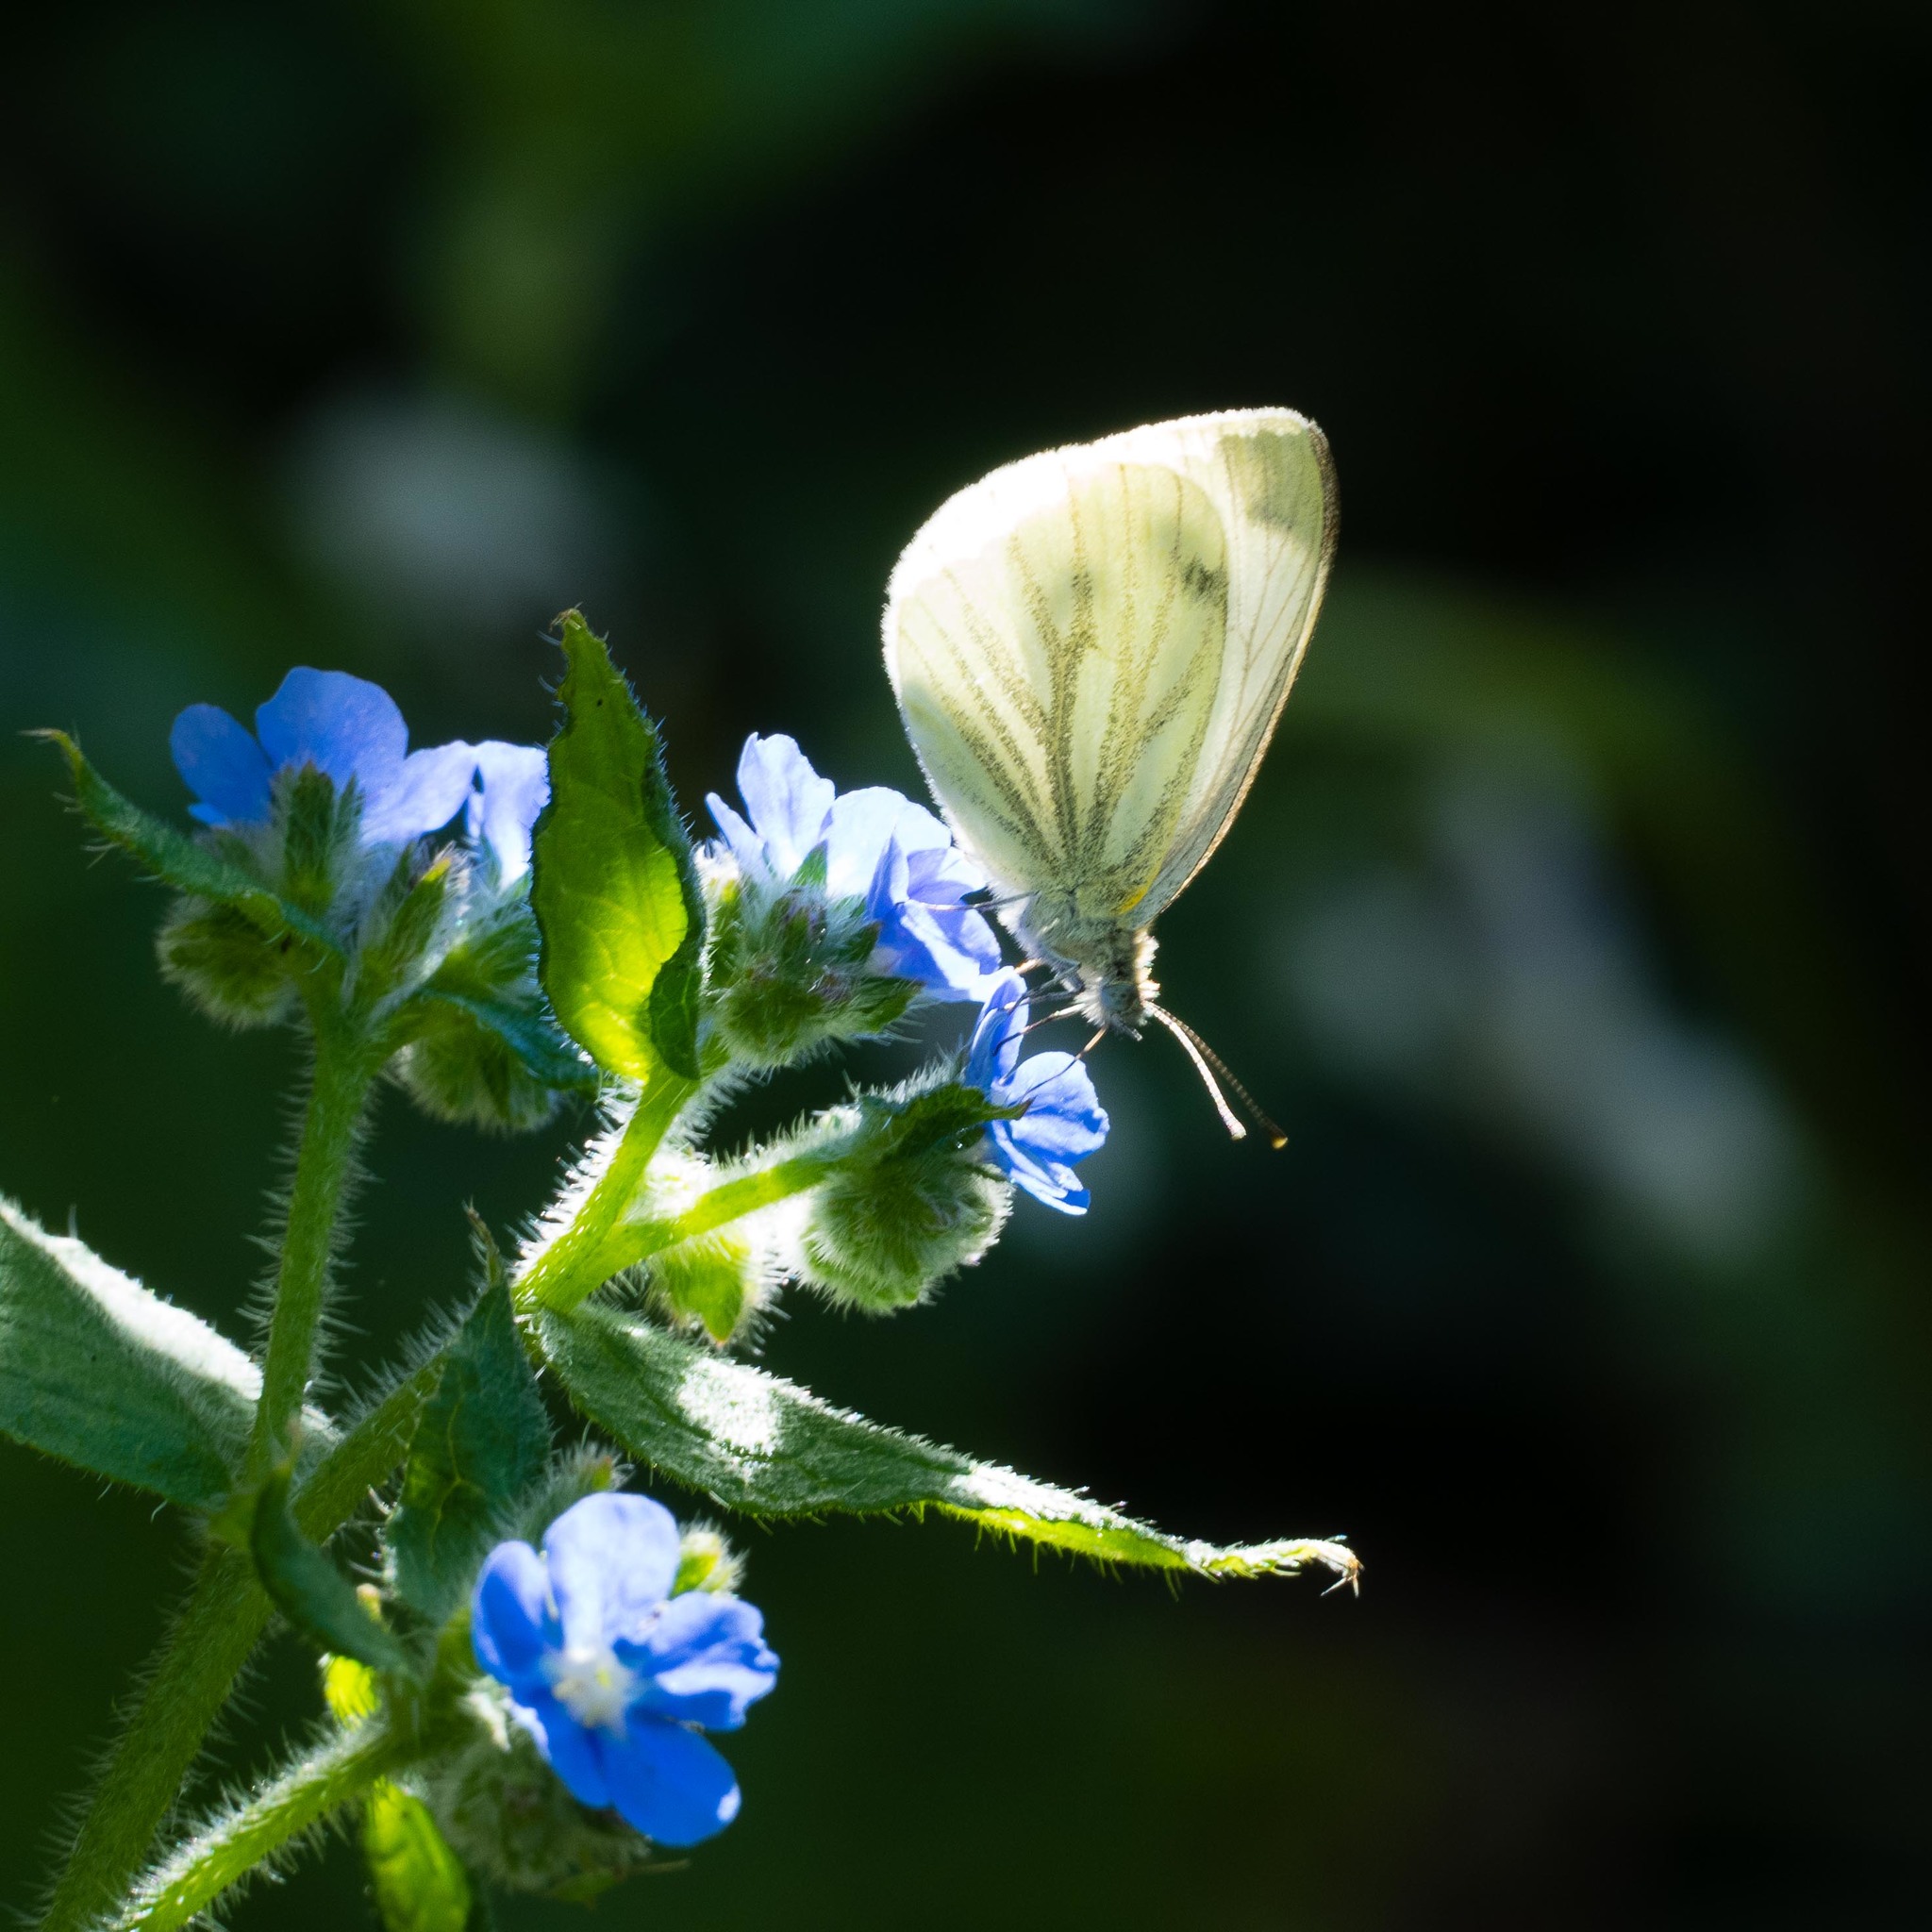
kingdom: Animalia
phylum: Arthropoda
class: Insecta
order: Lepidoptera
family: Pieridae
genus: Pieris
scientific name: Pieris napi
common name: Green-veined white
